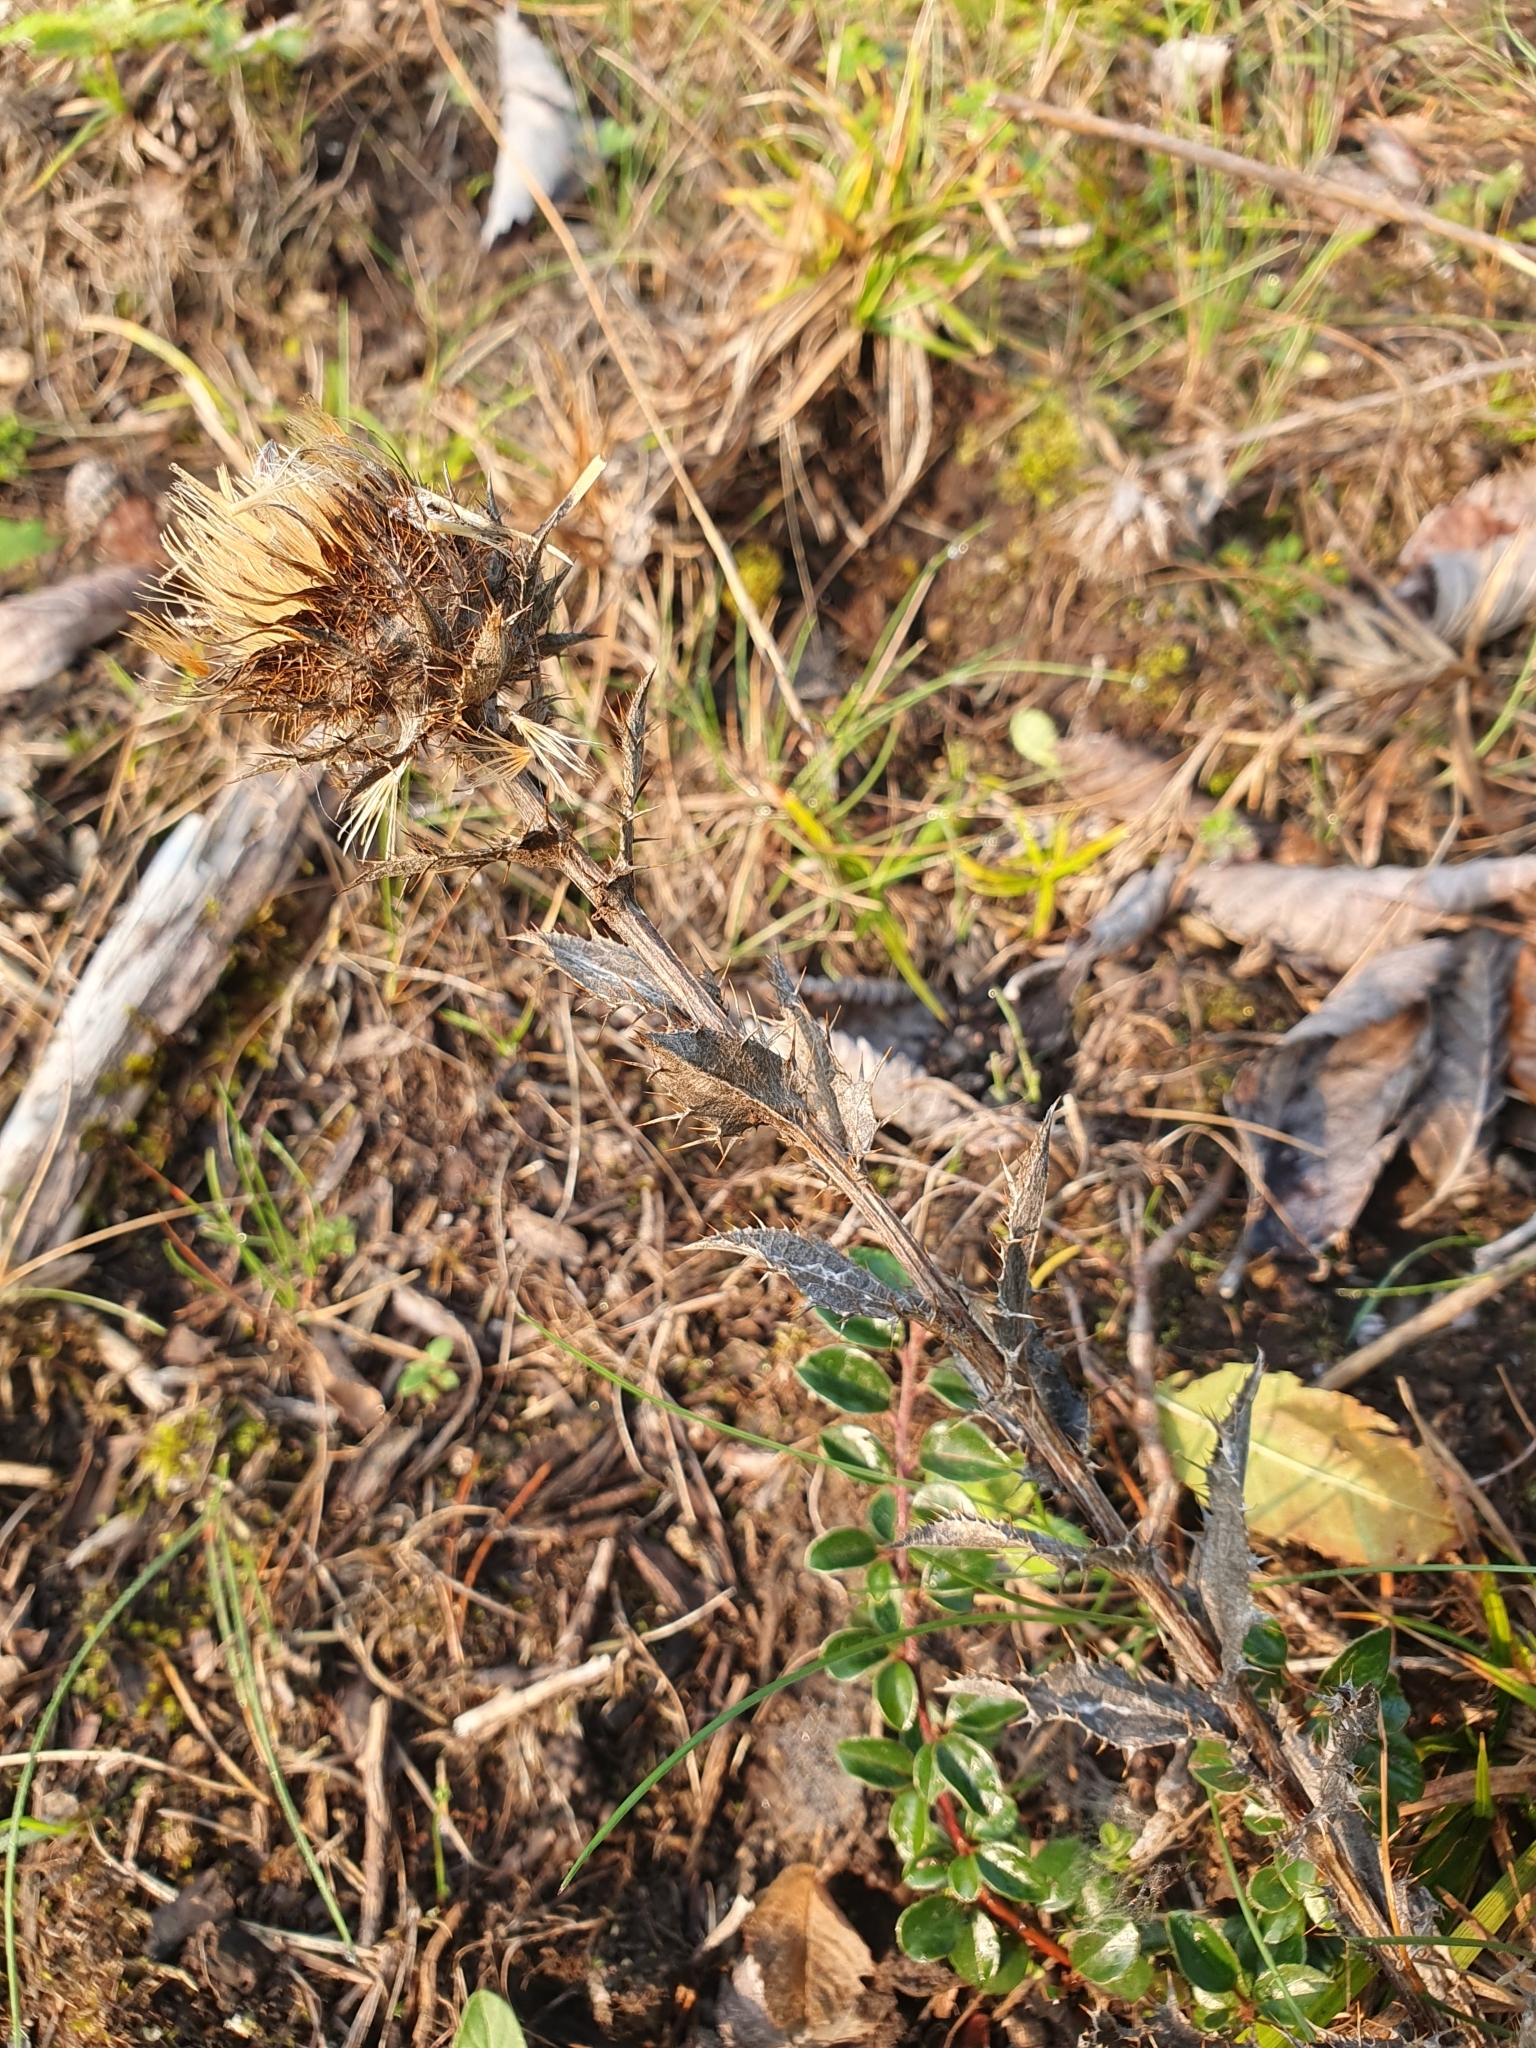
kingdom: Plantae
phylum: Tracheophyta
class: Magnoliopsida
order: Asterales
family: Asteraceae
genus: Carlina
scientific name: Carlina vulgaris
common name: Carline thistle
